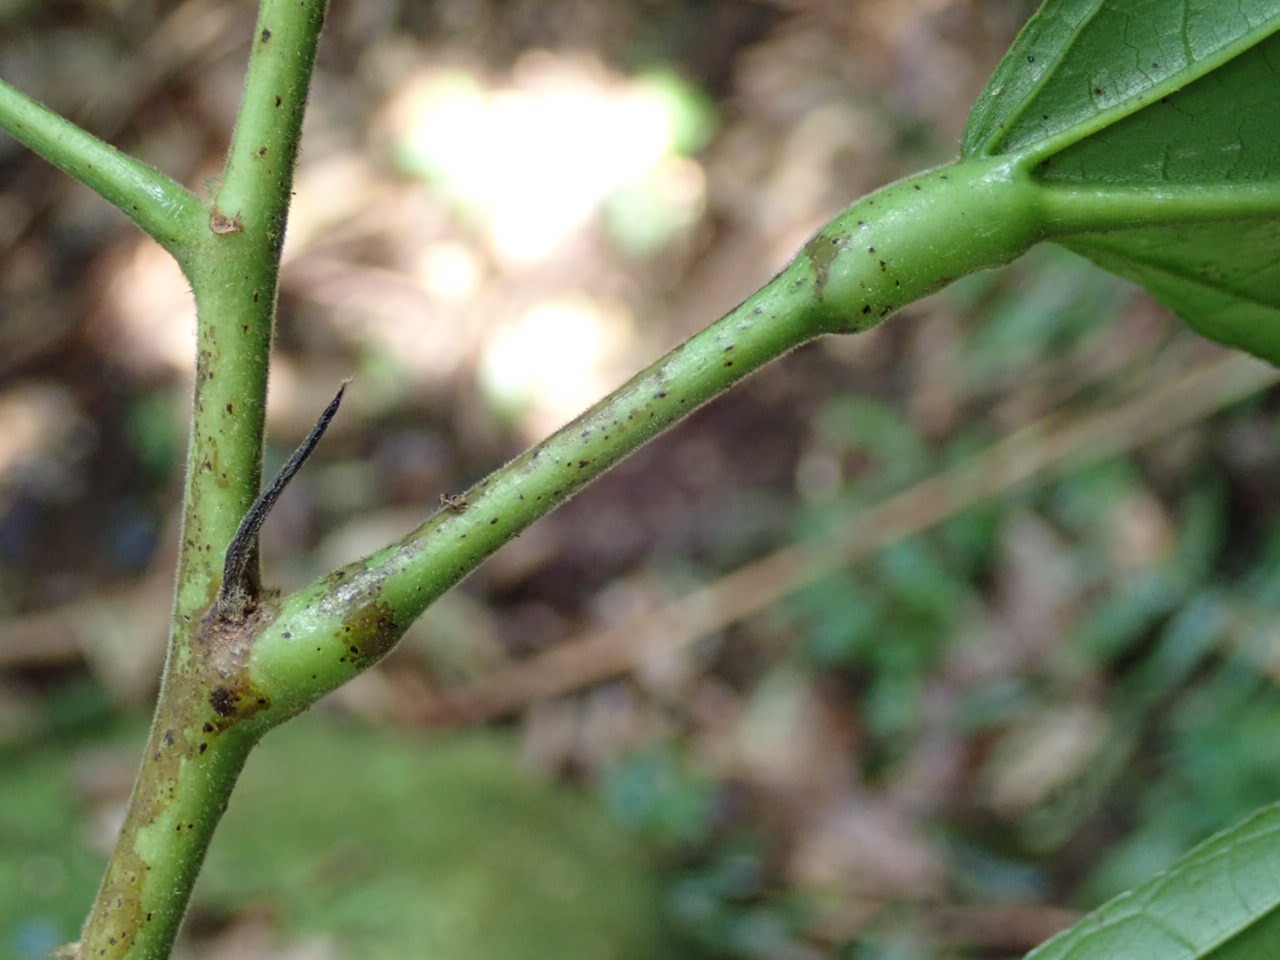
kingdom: Plantae
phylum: Tracheophyta
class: Magnoliopsida
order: Malvales
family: Malvaceae
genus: Theobroma
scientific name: Theobroma cacao
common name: Cocoa
